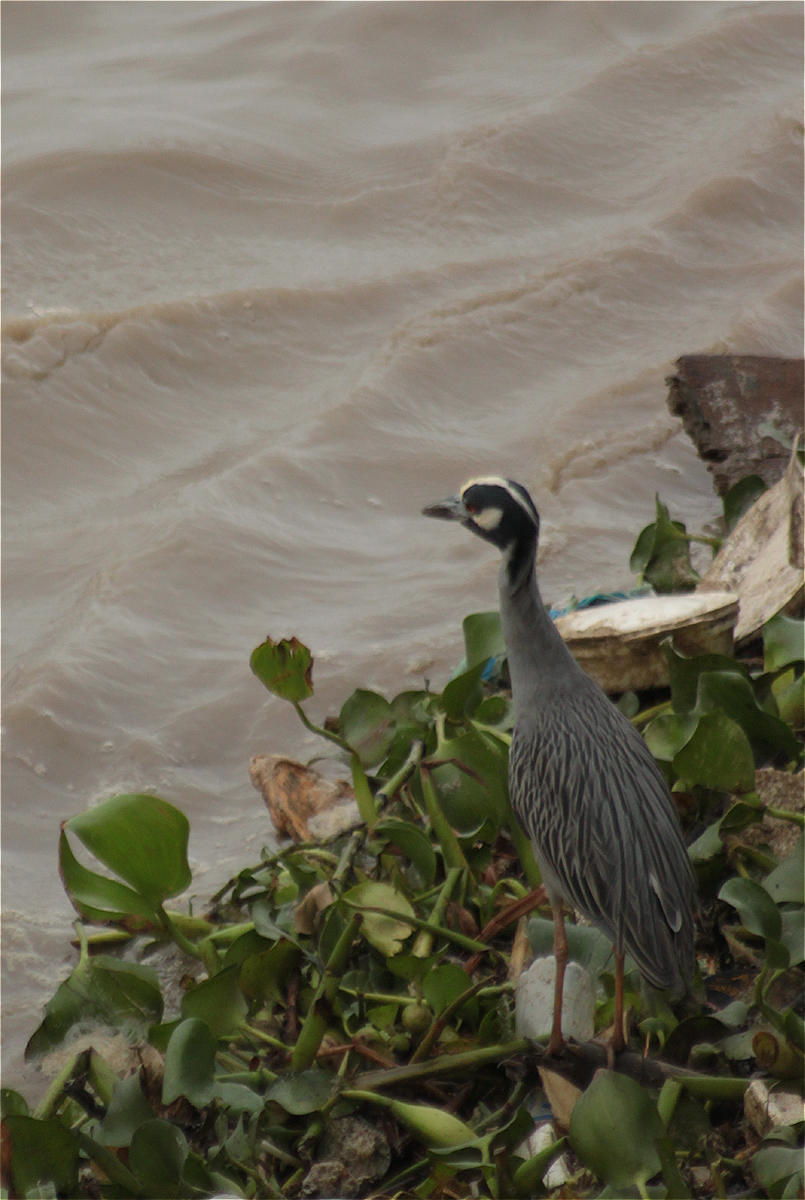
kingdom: Animalia
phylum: Chordata
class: Aves
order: Pelecaniformes
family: Ardeidae
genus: Nyctanassa
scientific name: Nyctanassa violacea
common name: Yellow-crowned night heron
